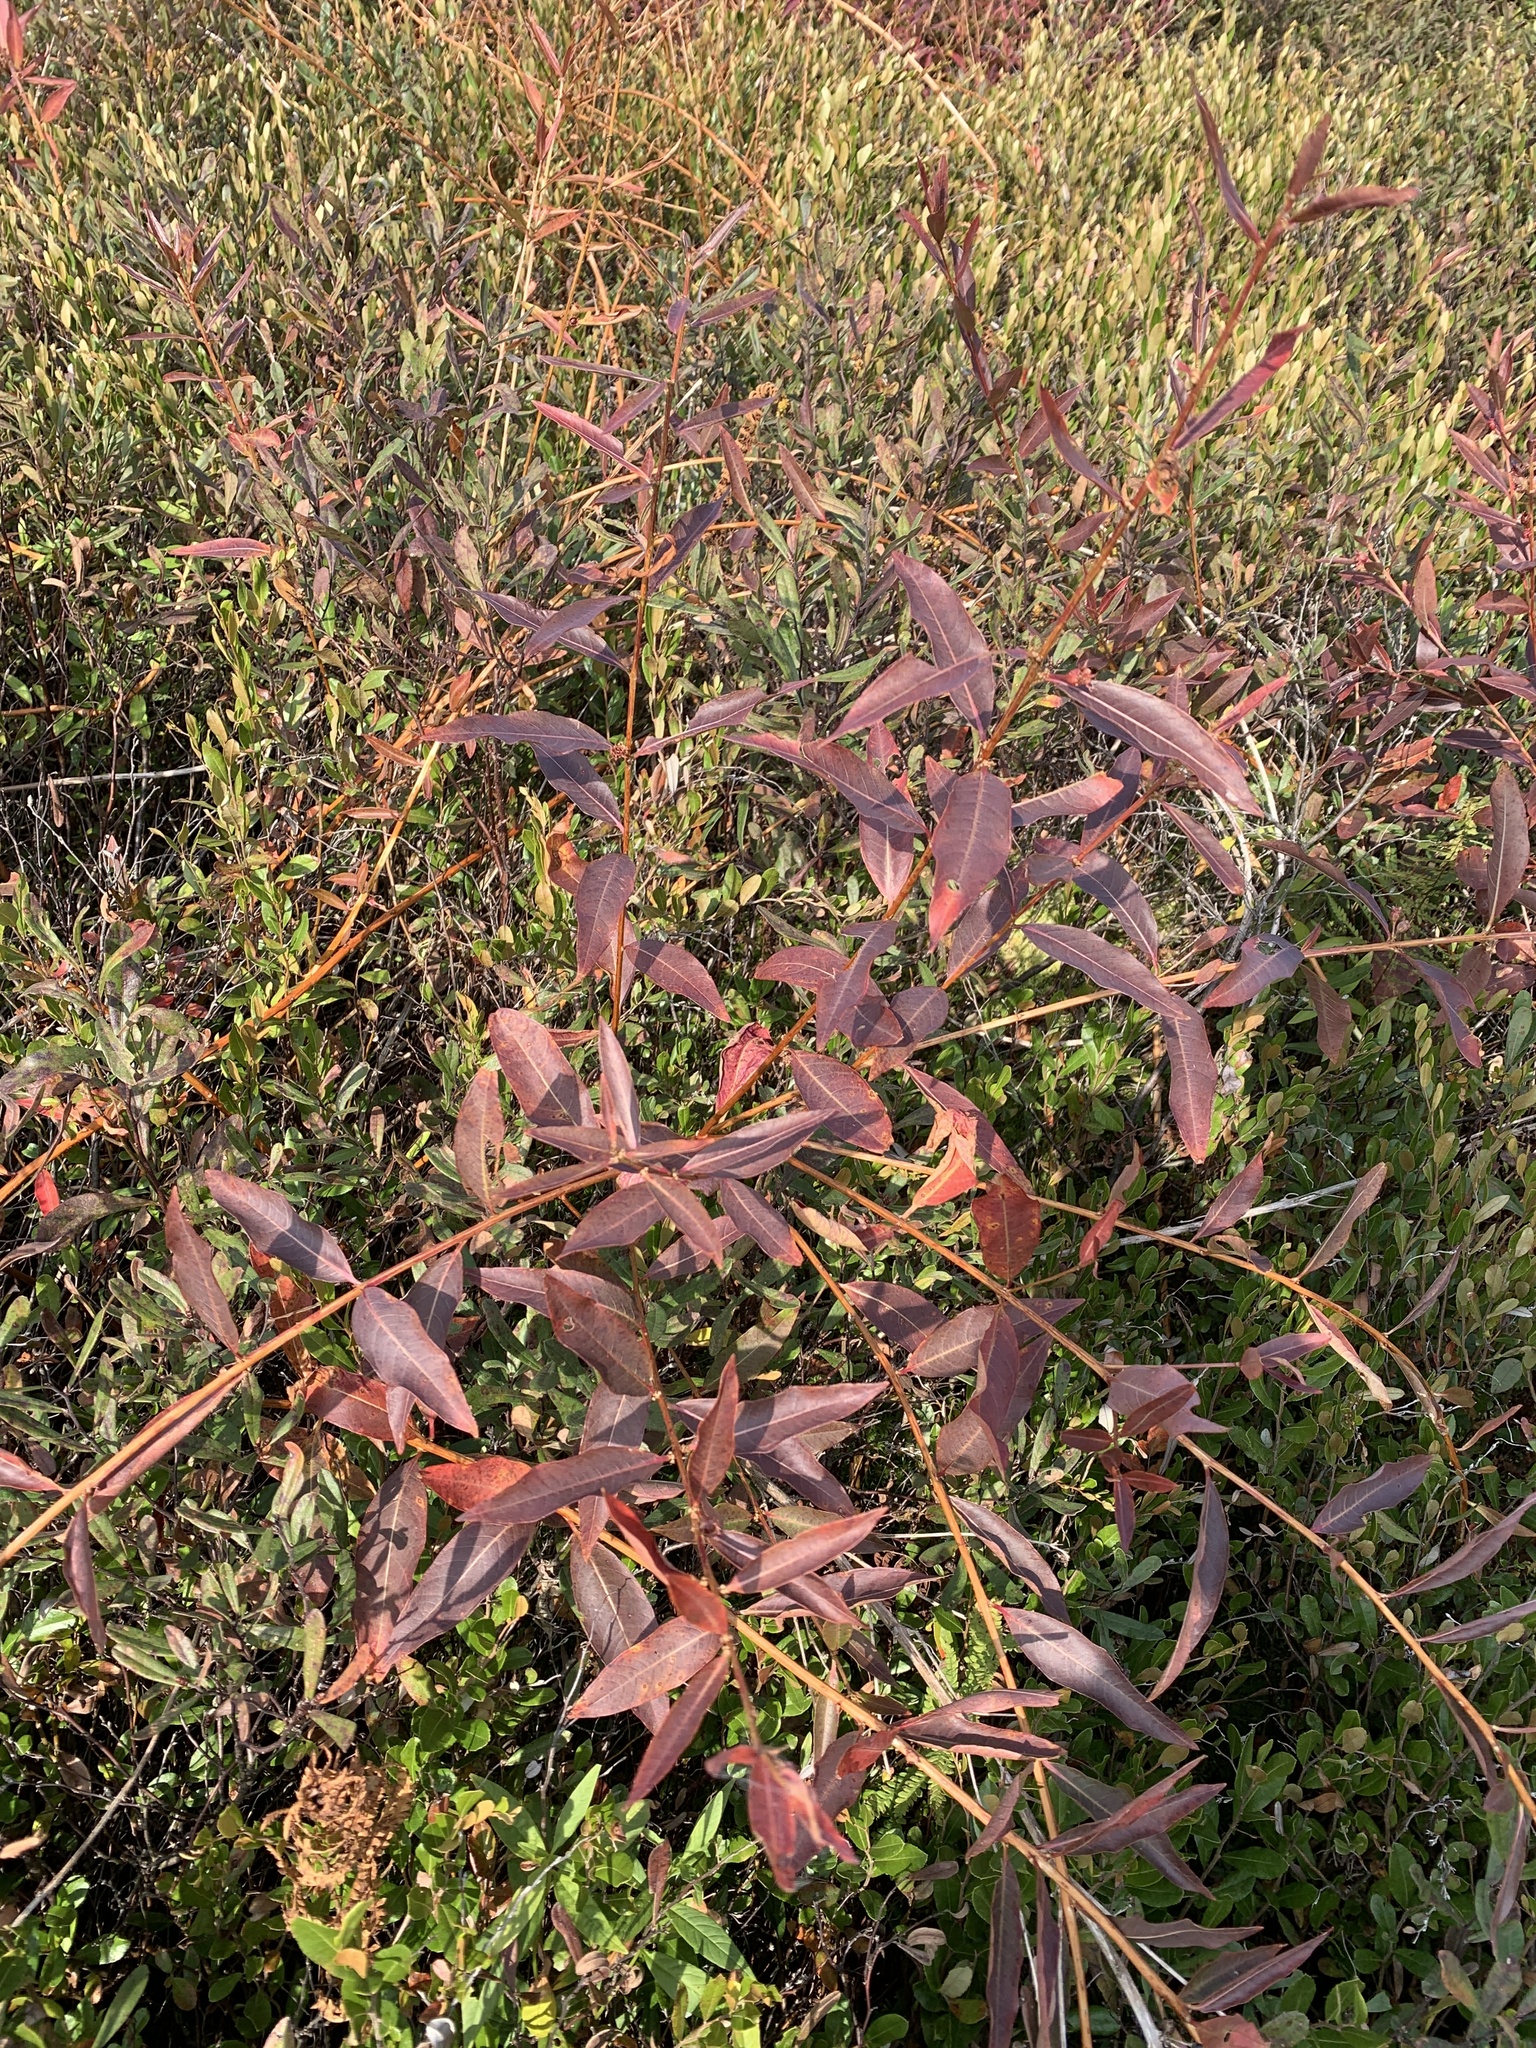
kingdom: Plantae
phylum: Tracheophyta
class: Magnoliopsida
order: Myrtales
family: Lythraceae
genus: Decodon
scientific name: Decodon verticillatus
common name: Hairy swamp loosestrife
